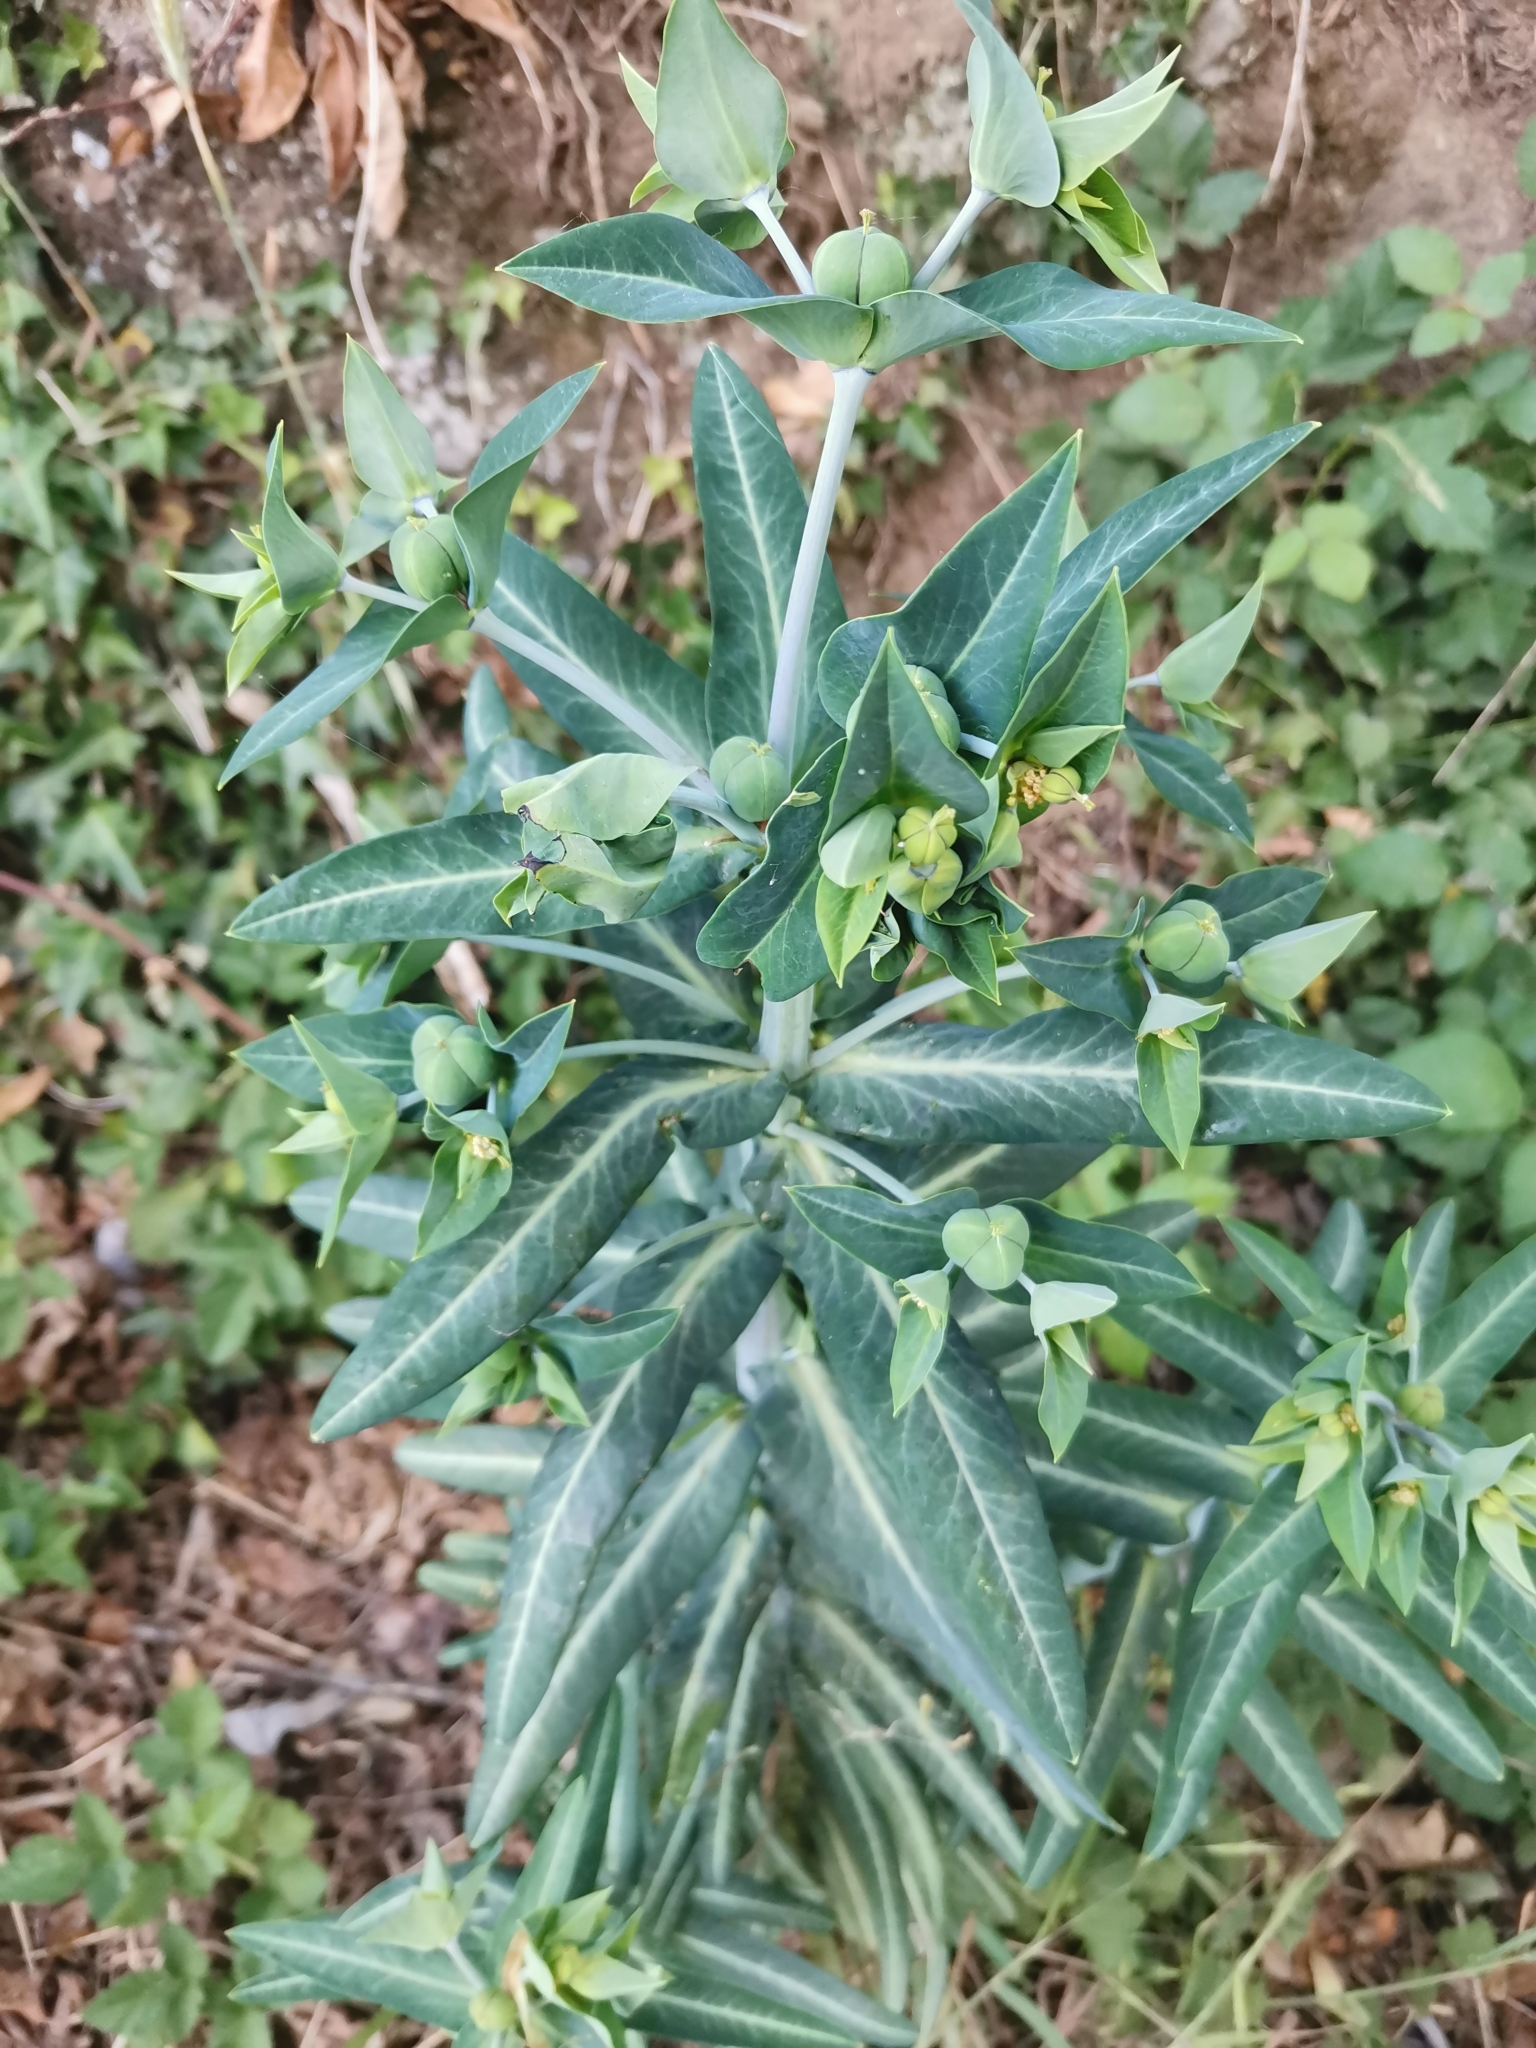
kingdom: Plantae
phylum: Tracheophyta
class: Magnoliopsida
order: Malpighiales
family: Euphorbiaceae
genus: Euphorbia
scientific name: Euphorbia lathyris
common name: Caper spurge
